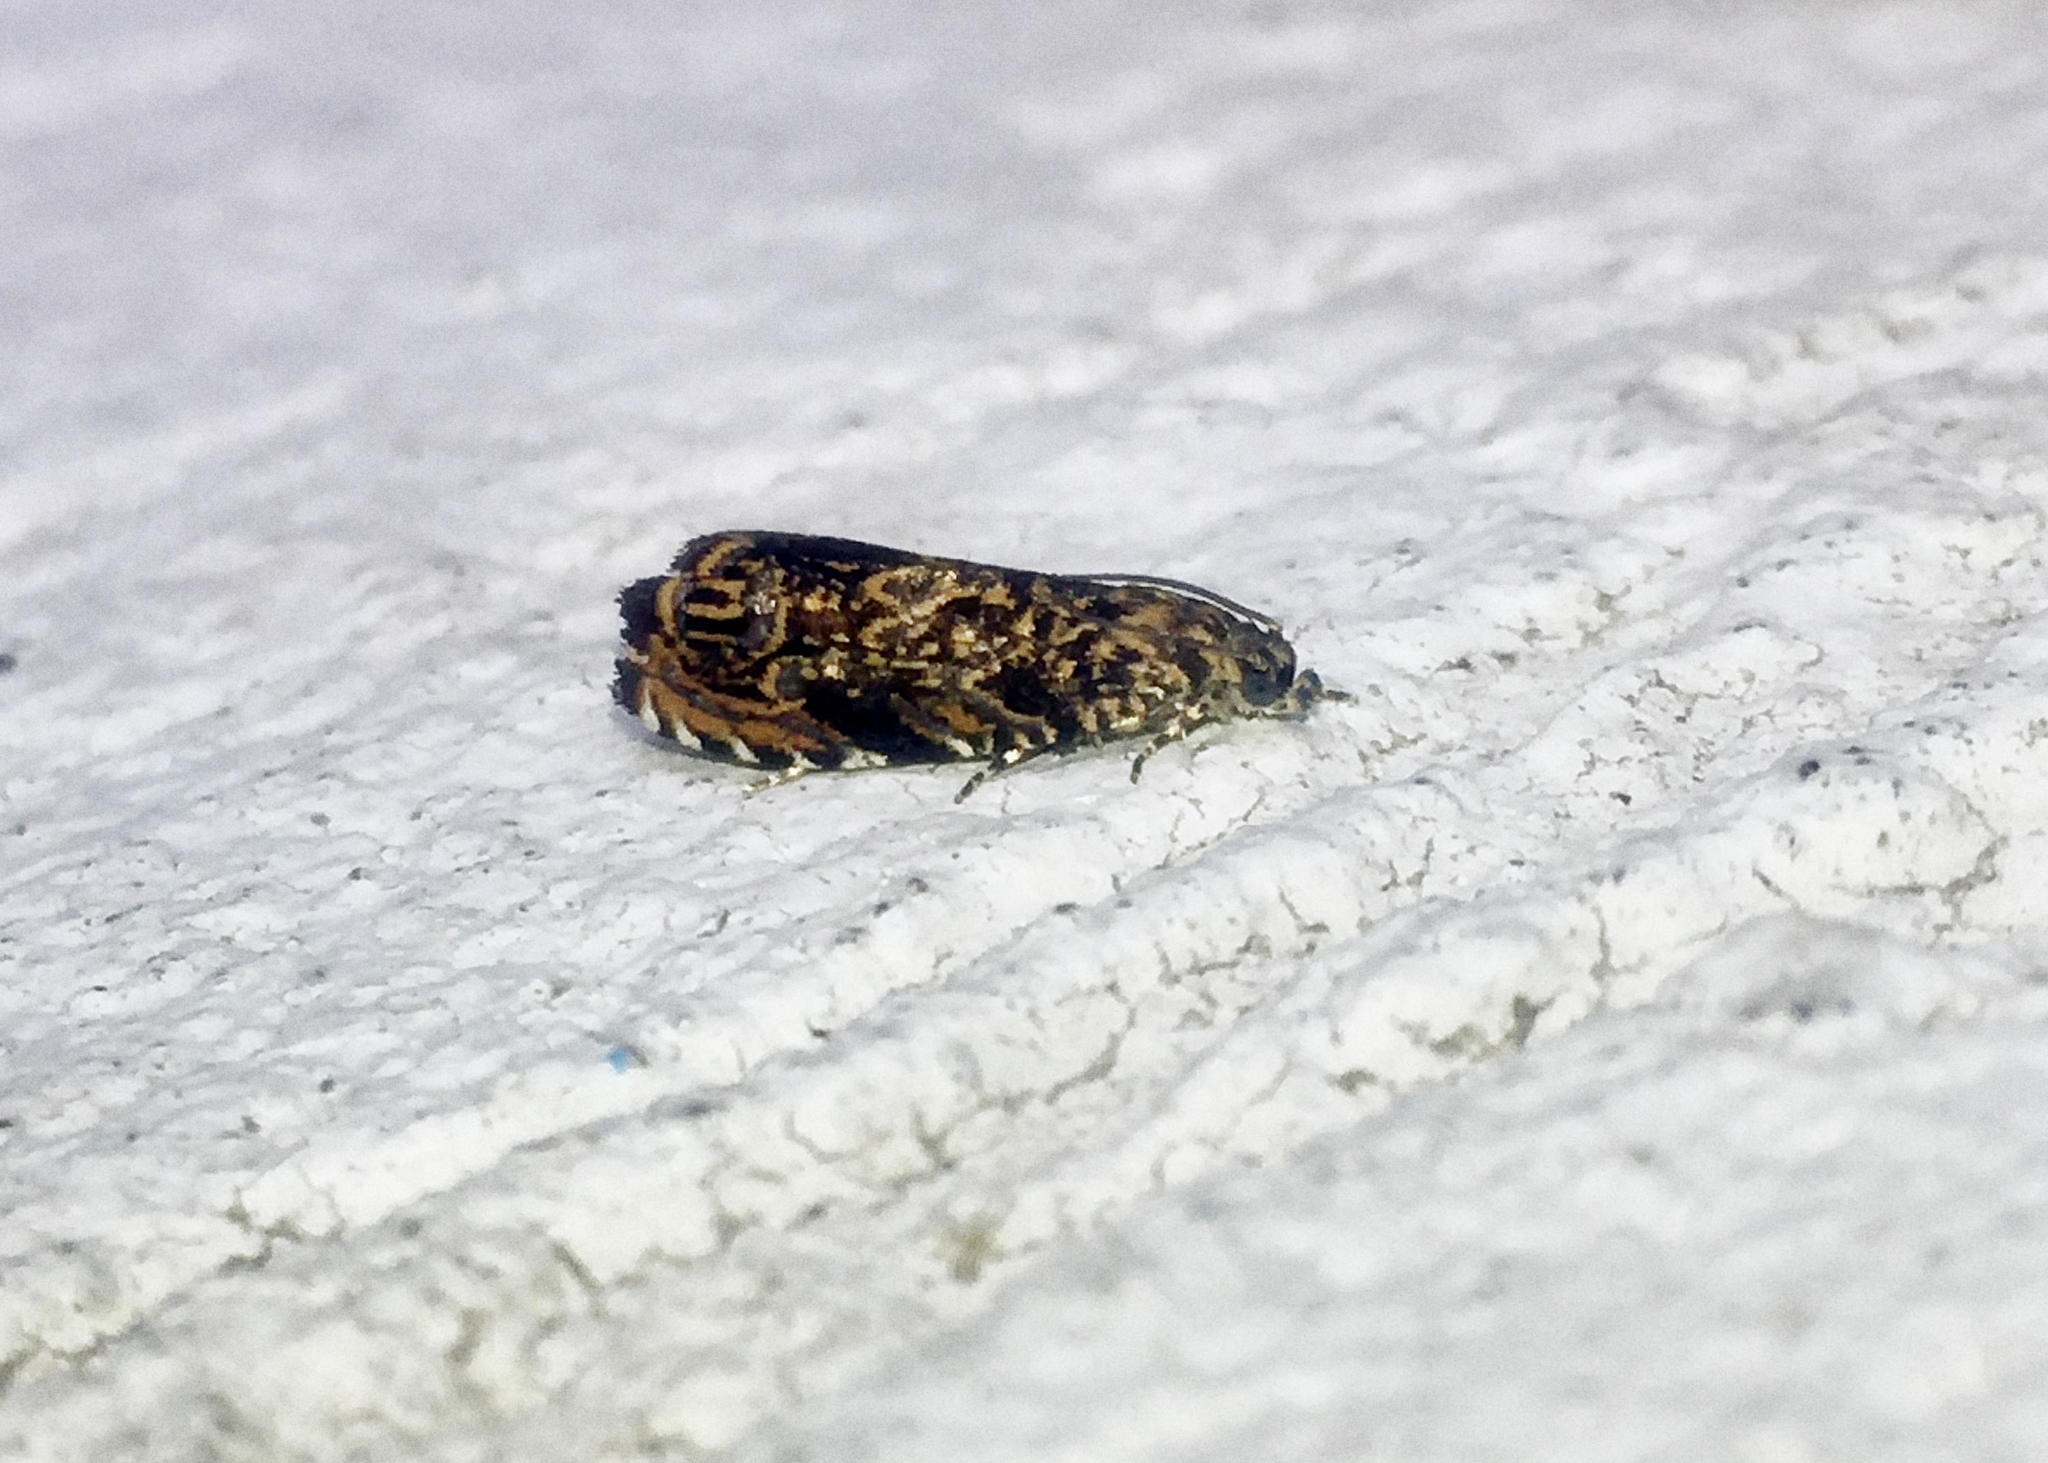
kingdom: Animalia
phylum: Arthropoda
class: Insecta
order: Lepidoptera
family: Tortricidae
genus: Enarmonia
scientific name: Enarmonia formosana
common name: Cherry bark tortrix
